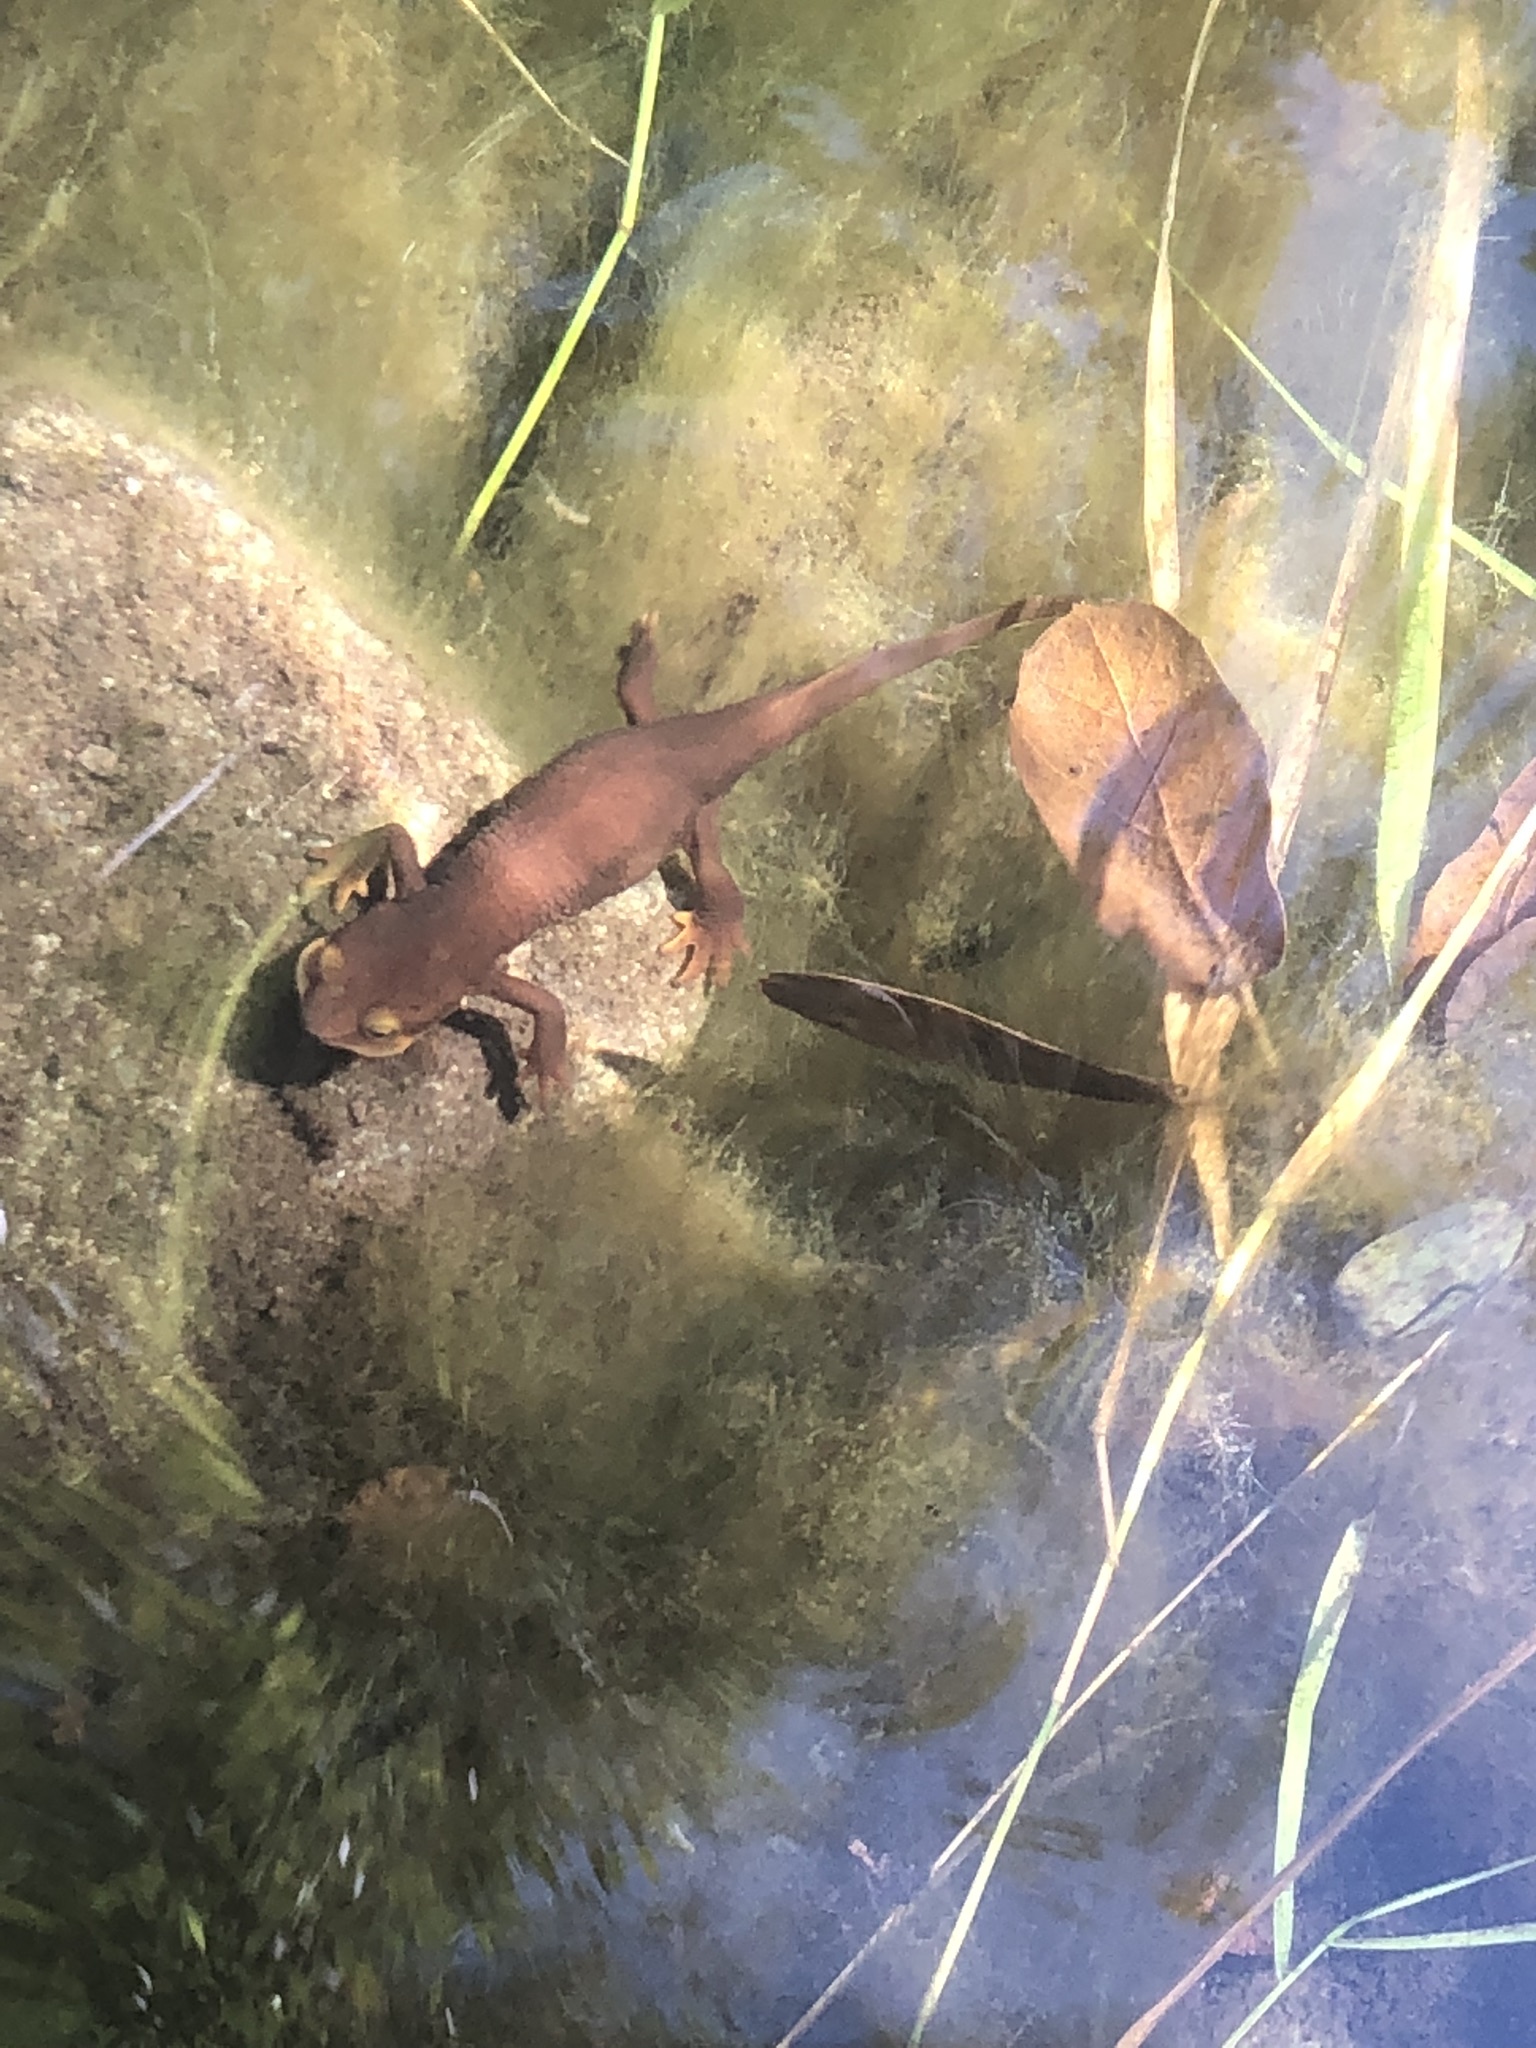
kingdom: Animalia
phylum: Chordata
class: Amphibia
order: Caudata
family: Salamandridae
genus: Taricha
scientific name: Taricha torosa
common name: California newt
